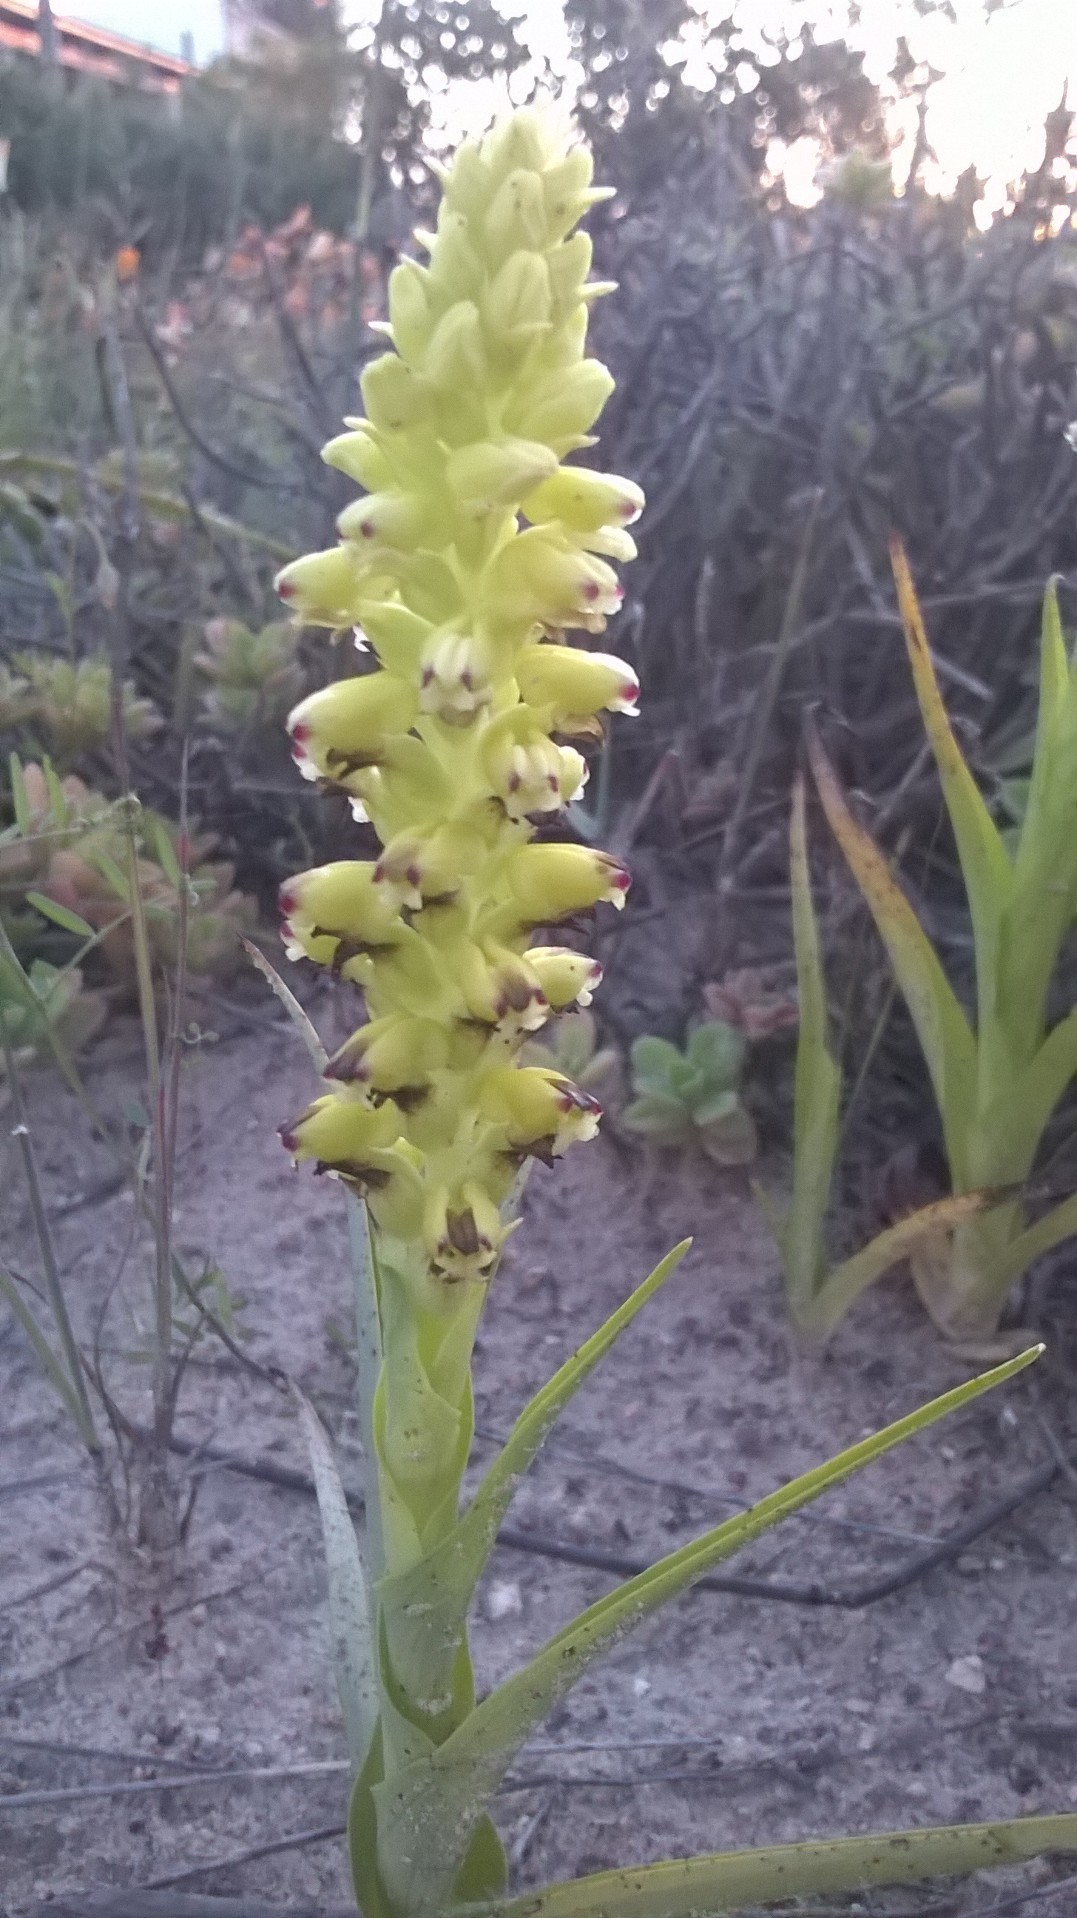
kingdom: Plantae
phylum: Tracheophyta
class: Liliopsida
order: Asparagales
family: Orchidaceae
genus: Corycium
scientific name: Corycium orobanchoides
